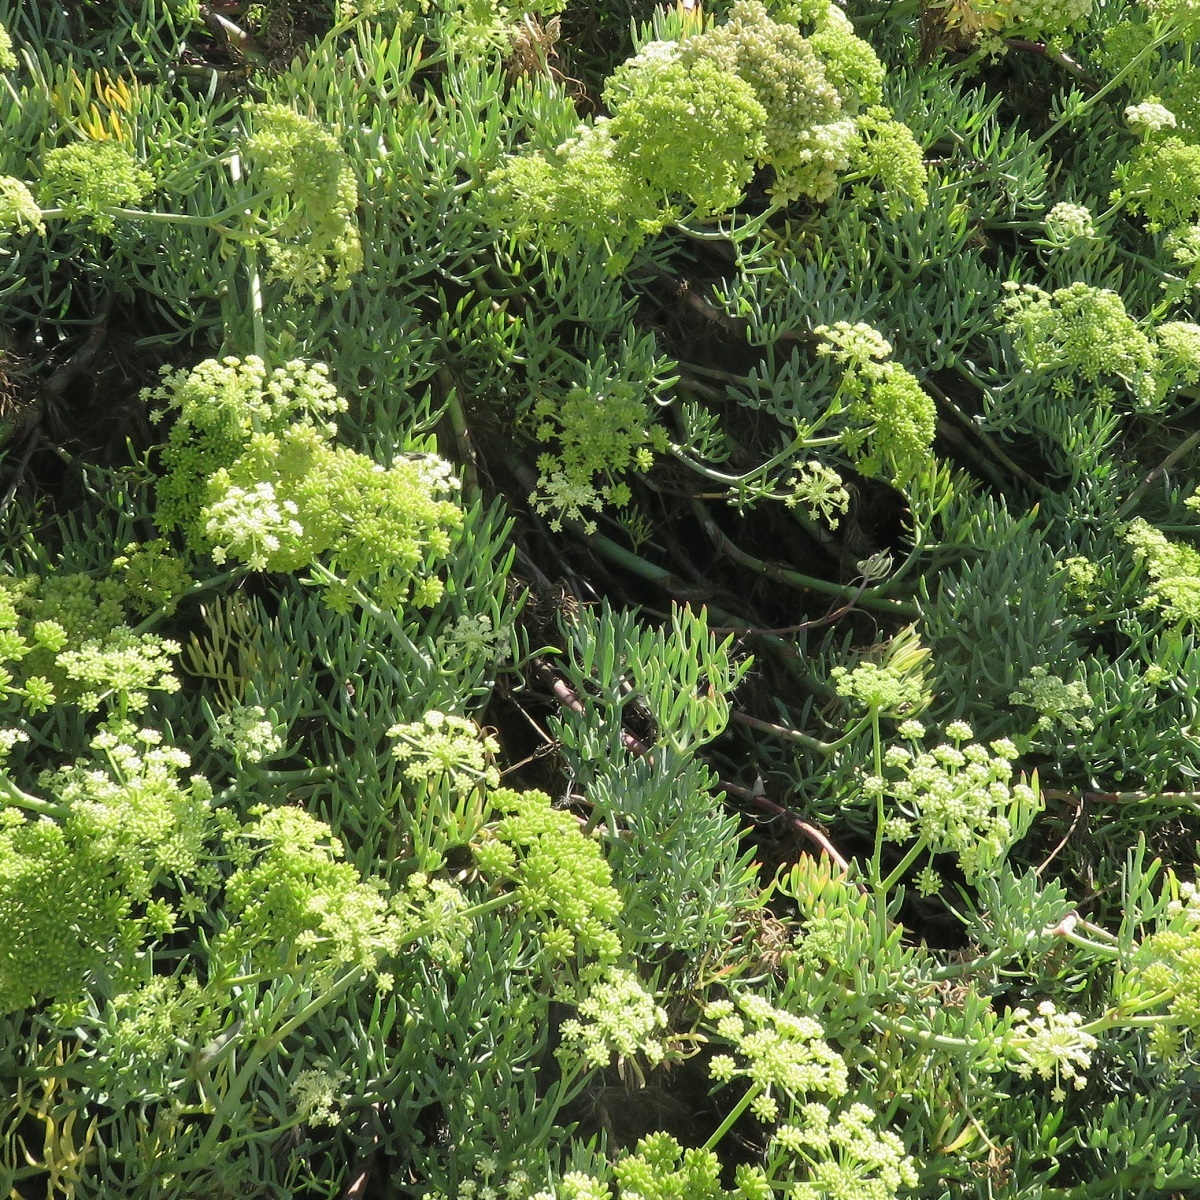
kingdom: Plantae
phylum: Tracheophyta
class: Magnoliopsida
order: Apiales
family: Apiaceae
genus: Crithmum
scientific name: Crithmum maritimum
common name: Rock samphire
